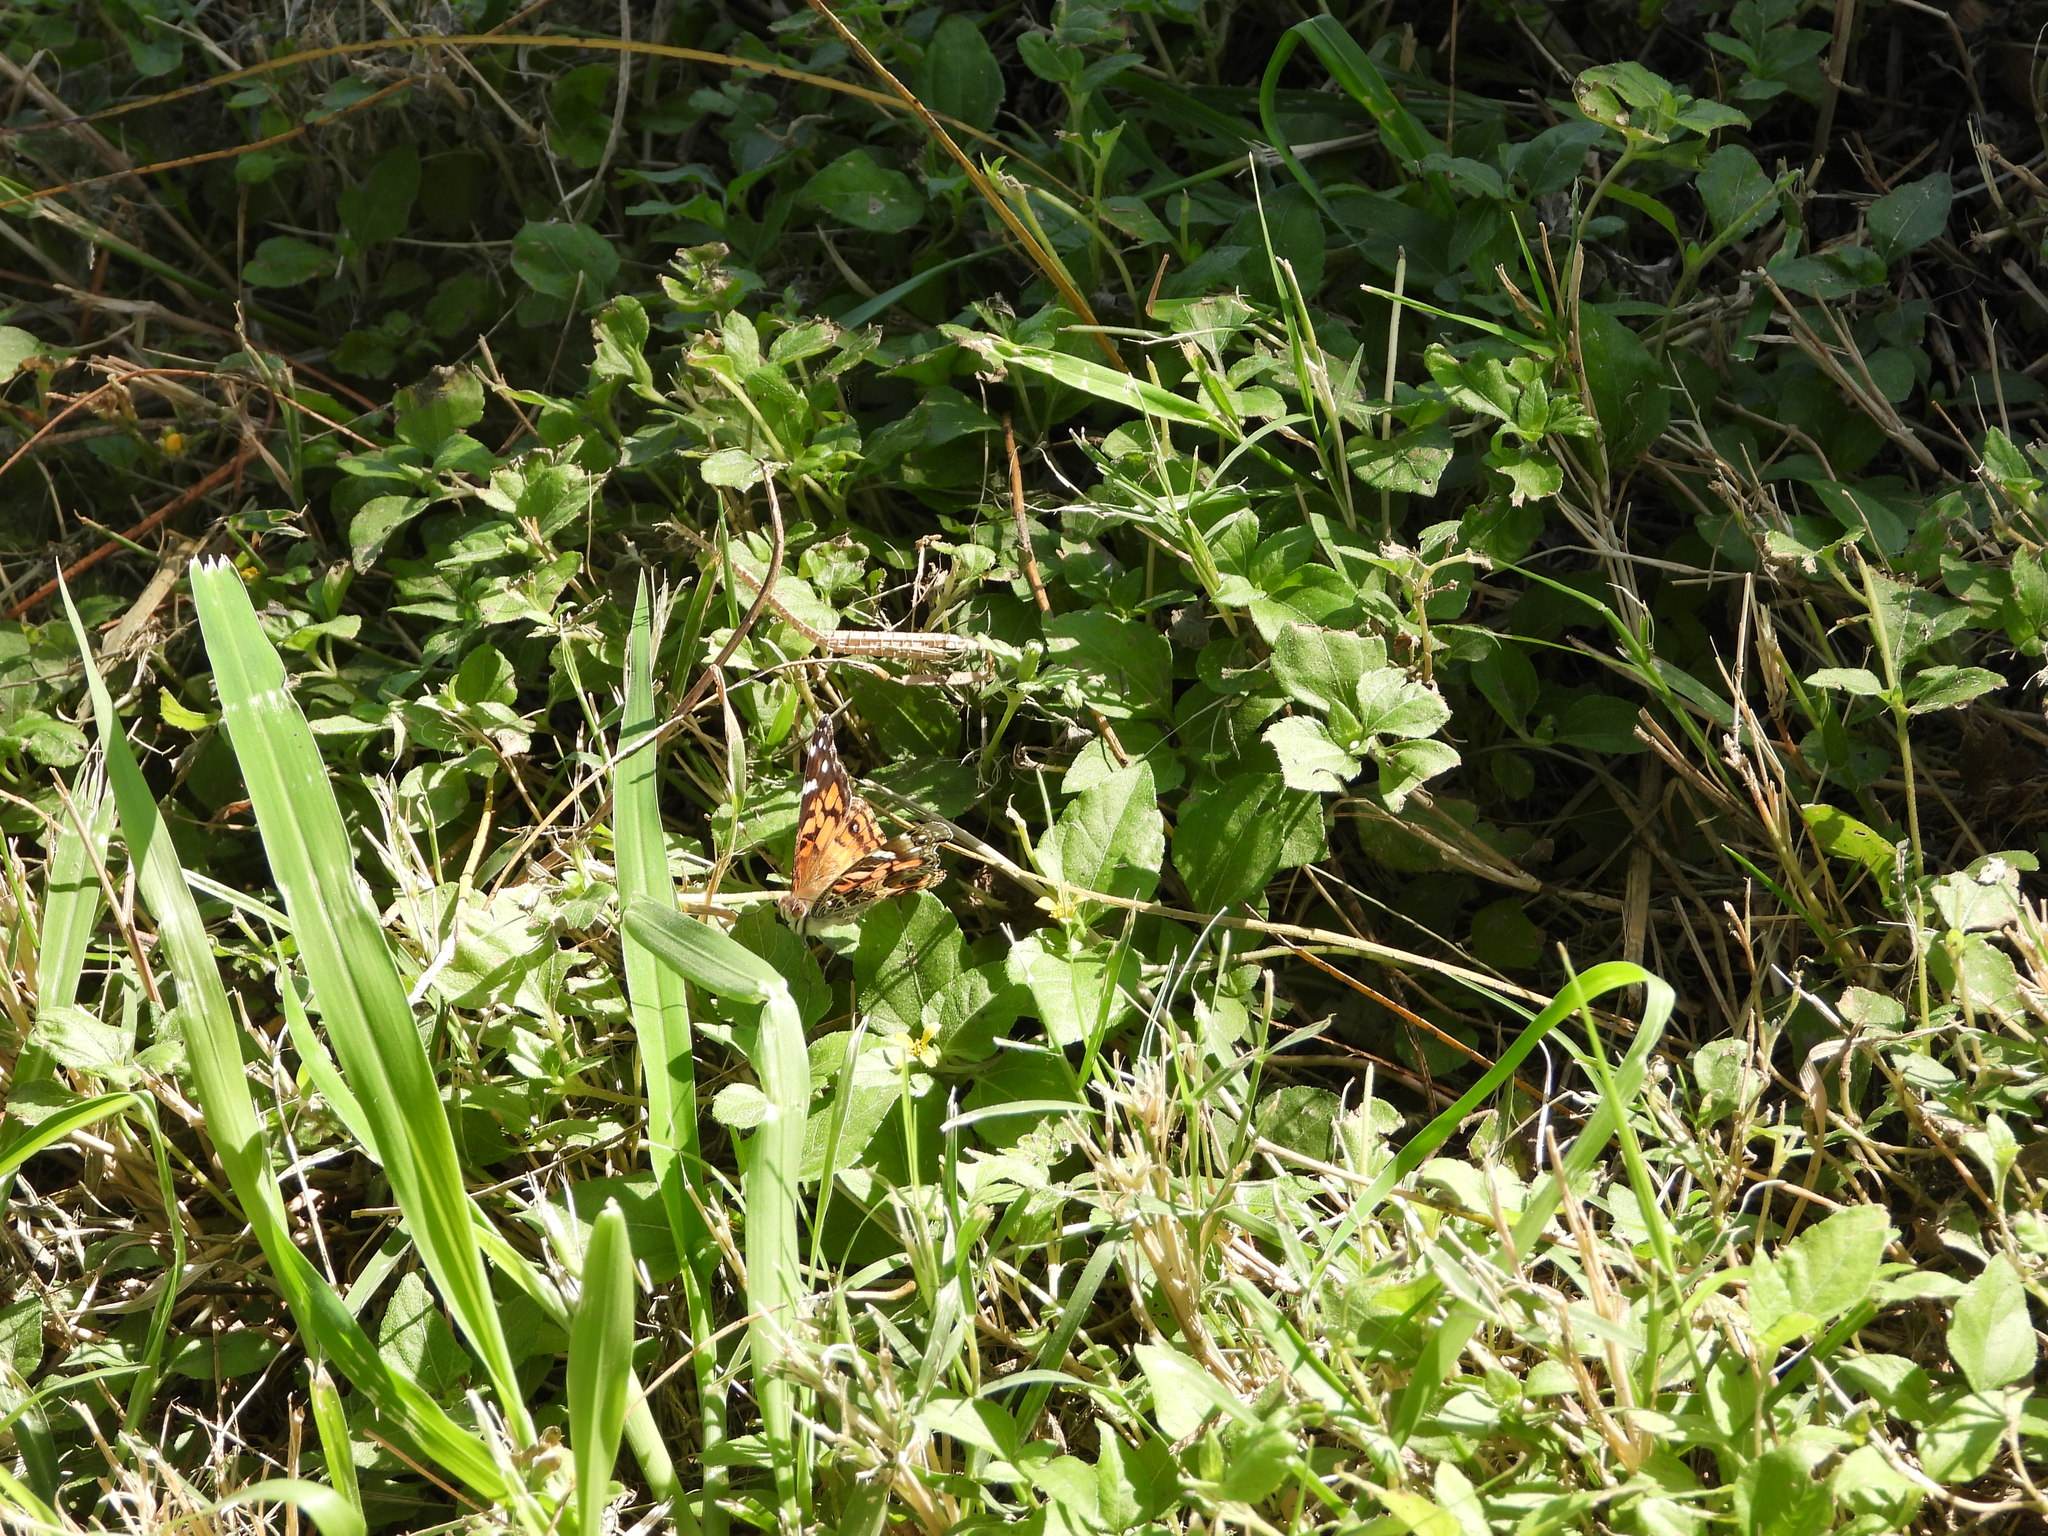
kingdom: Animalia
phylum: Arthropoda
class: Insecta
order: Lepidoptera
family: Nymphalidae
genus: Vanessa
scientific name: Vanessa virginiensis
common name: American lady
